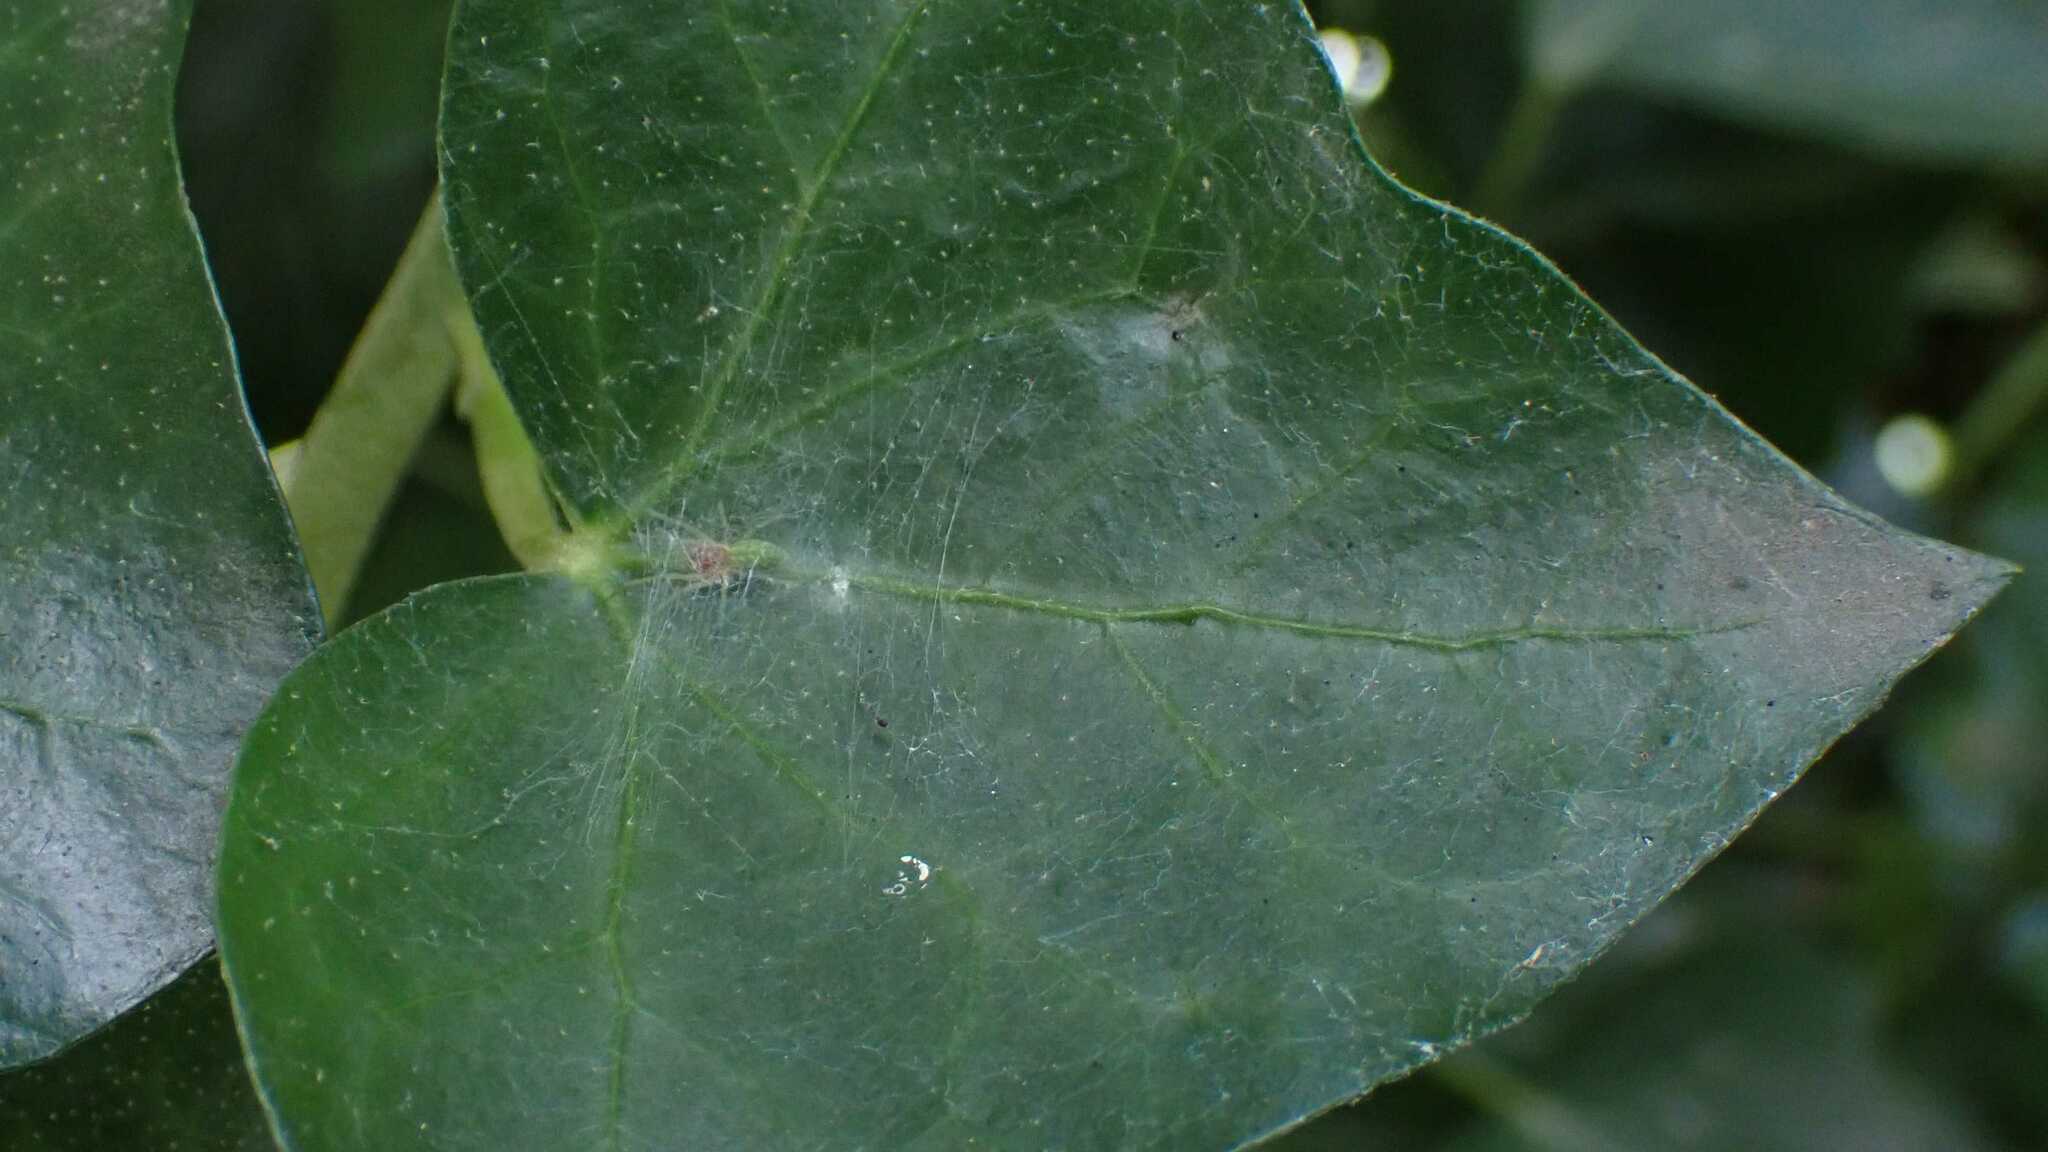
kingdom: Animalia
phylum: Arthropoda
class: Arachnida
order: Araneae
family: Dictynidae
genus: Nigma
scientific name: Nigma walckenaeri
